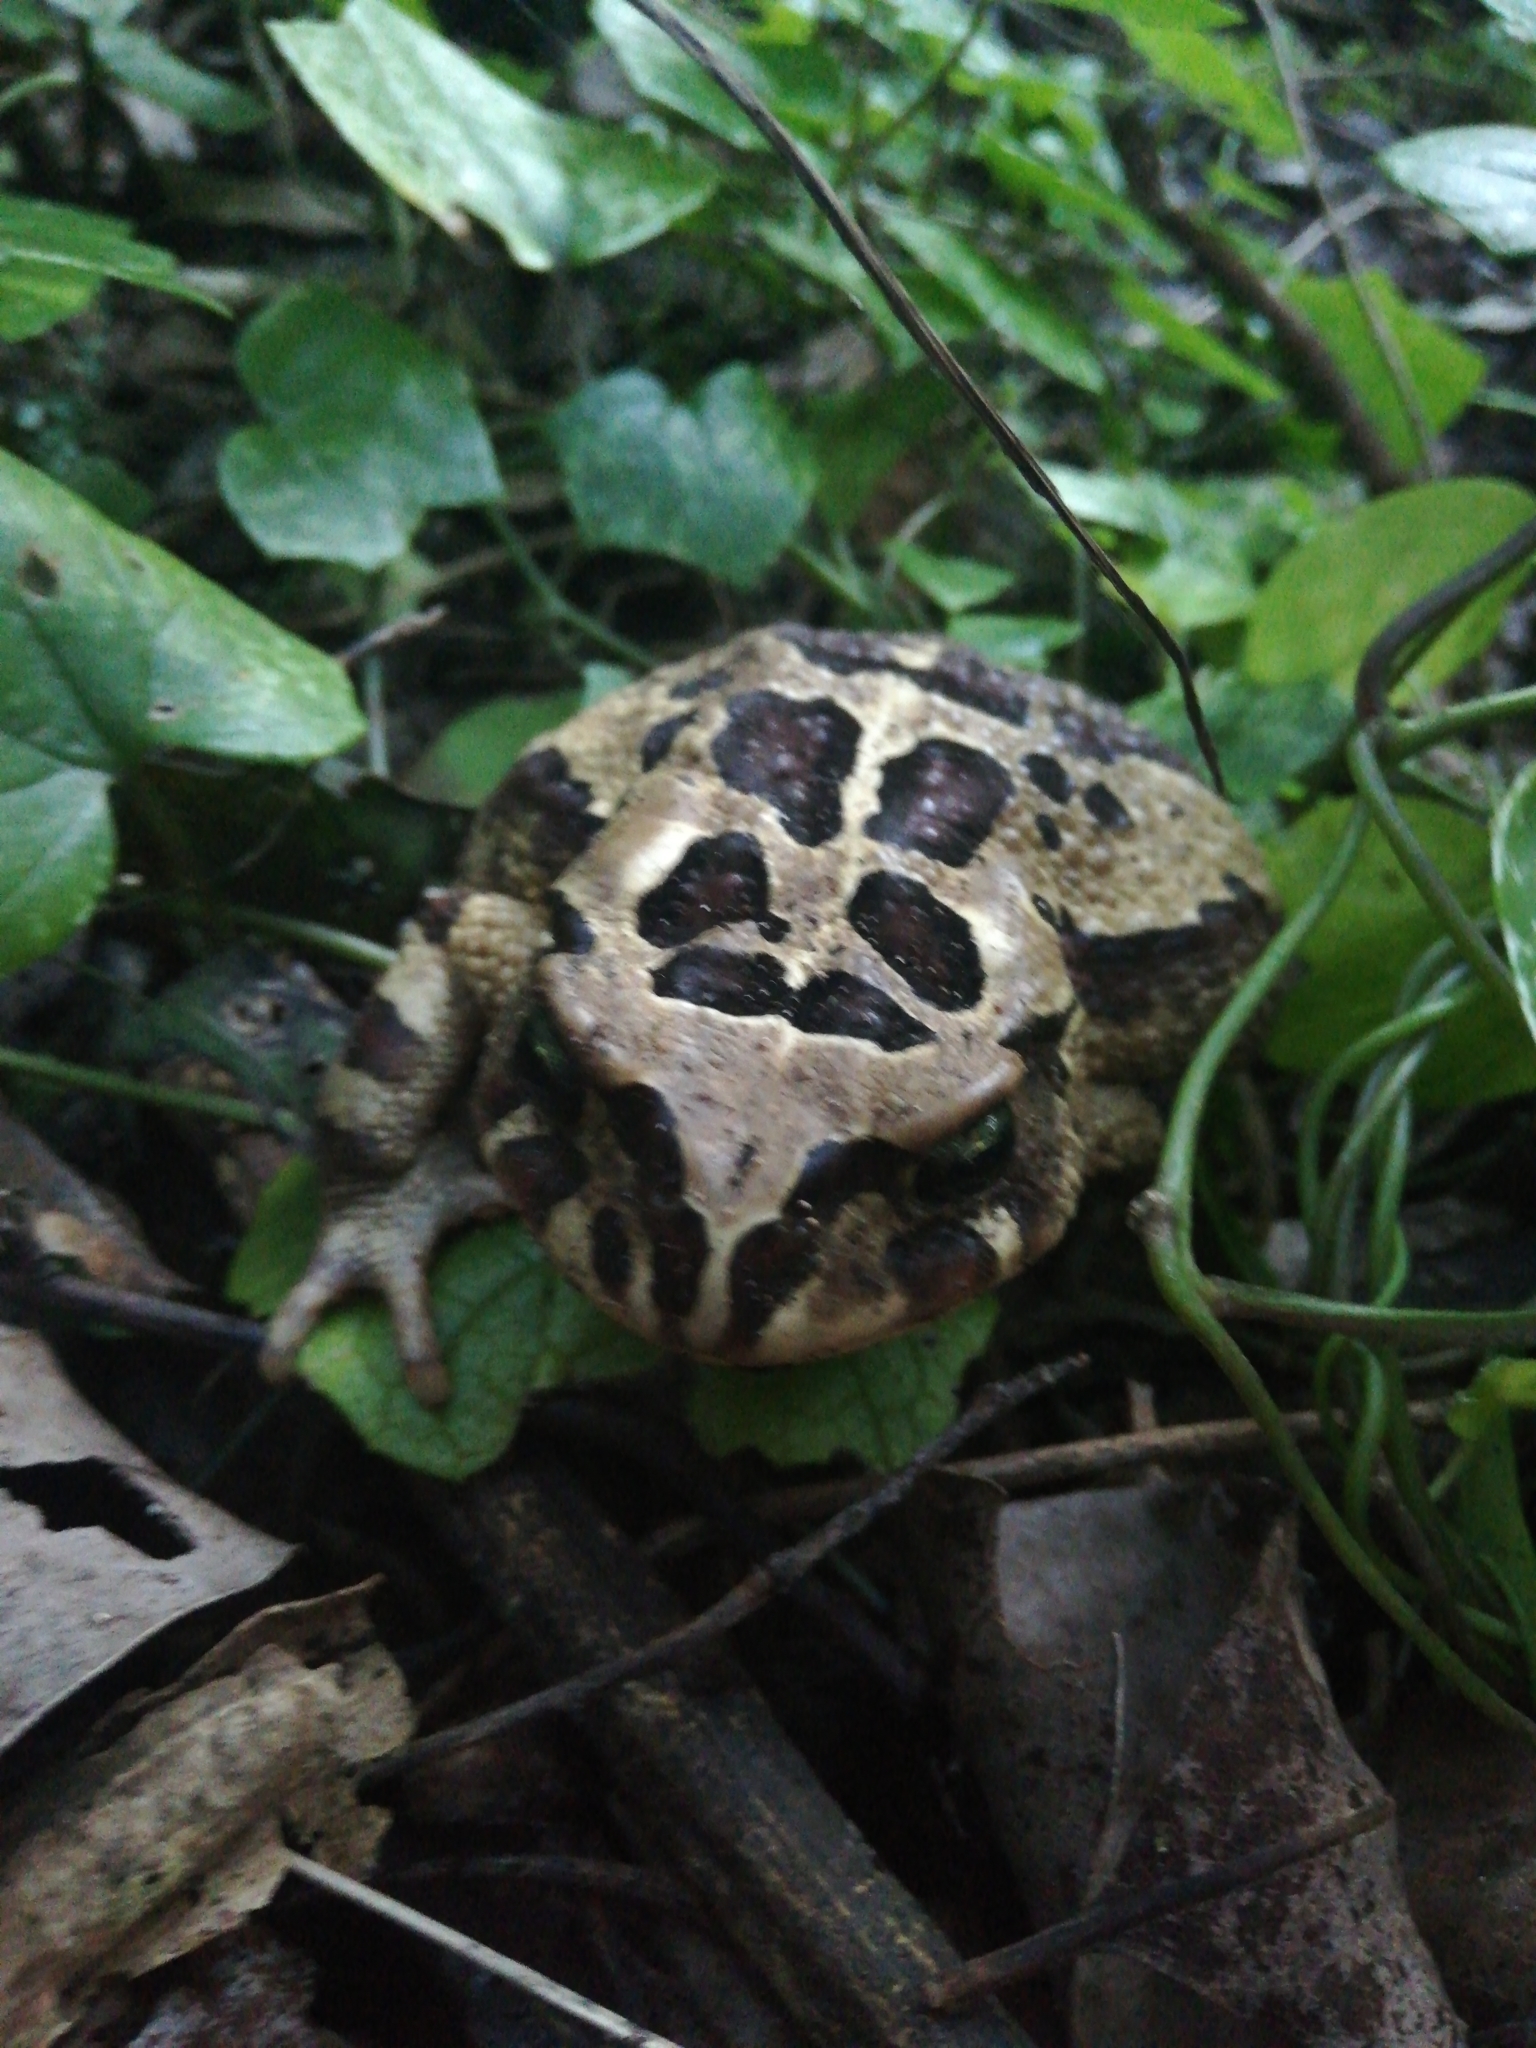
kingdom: Animalia
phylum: Chordata
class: Amphibia
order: Anura
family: Bufonidae
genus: Sclerophrys
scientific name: Sclerophrys pardalis
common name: Eastern leopard toad
